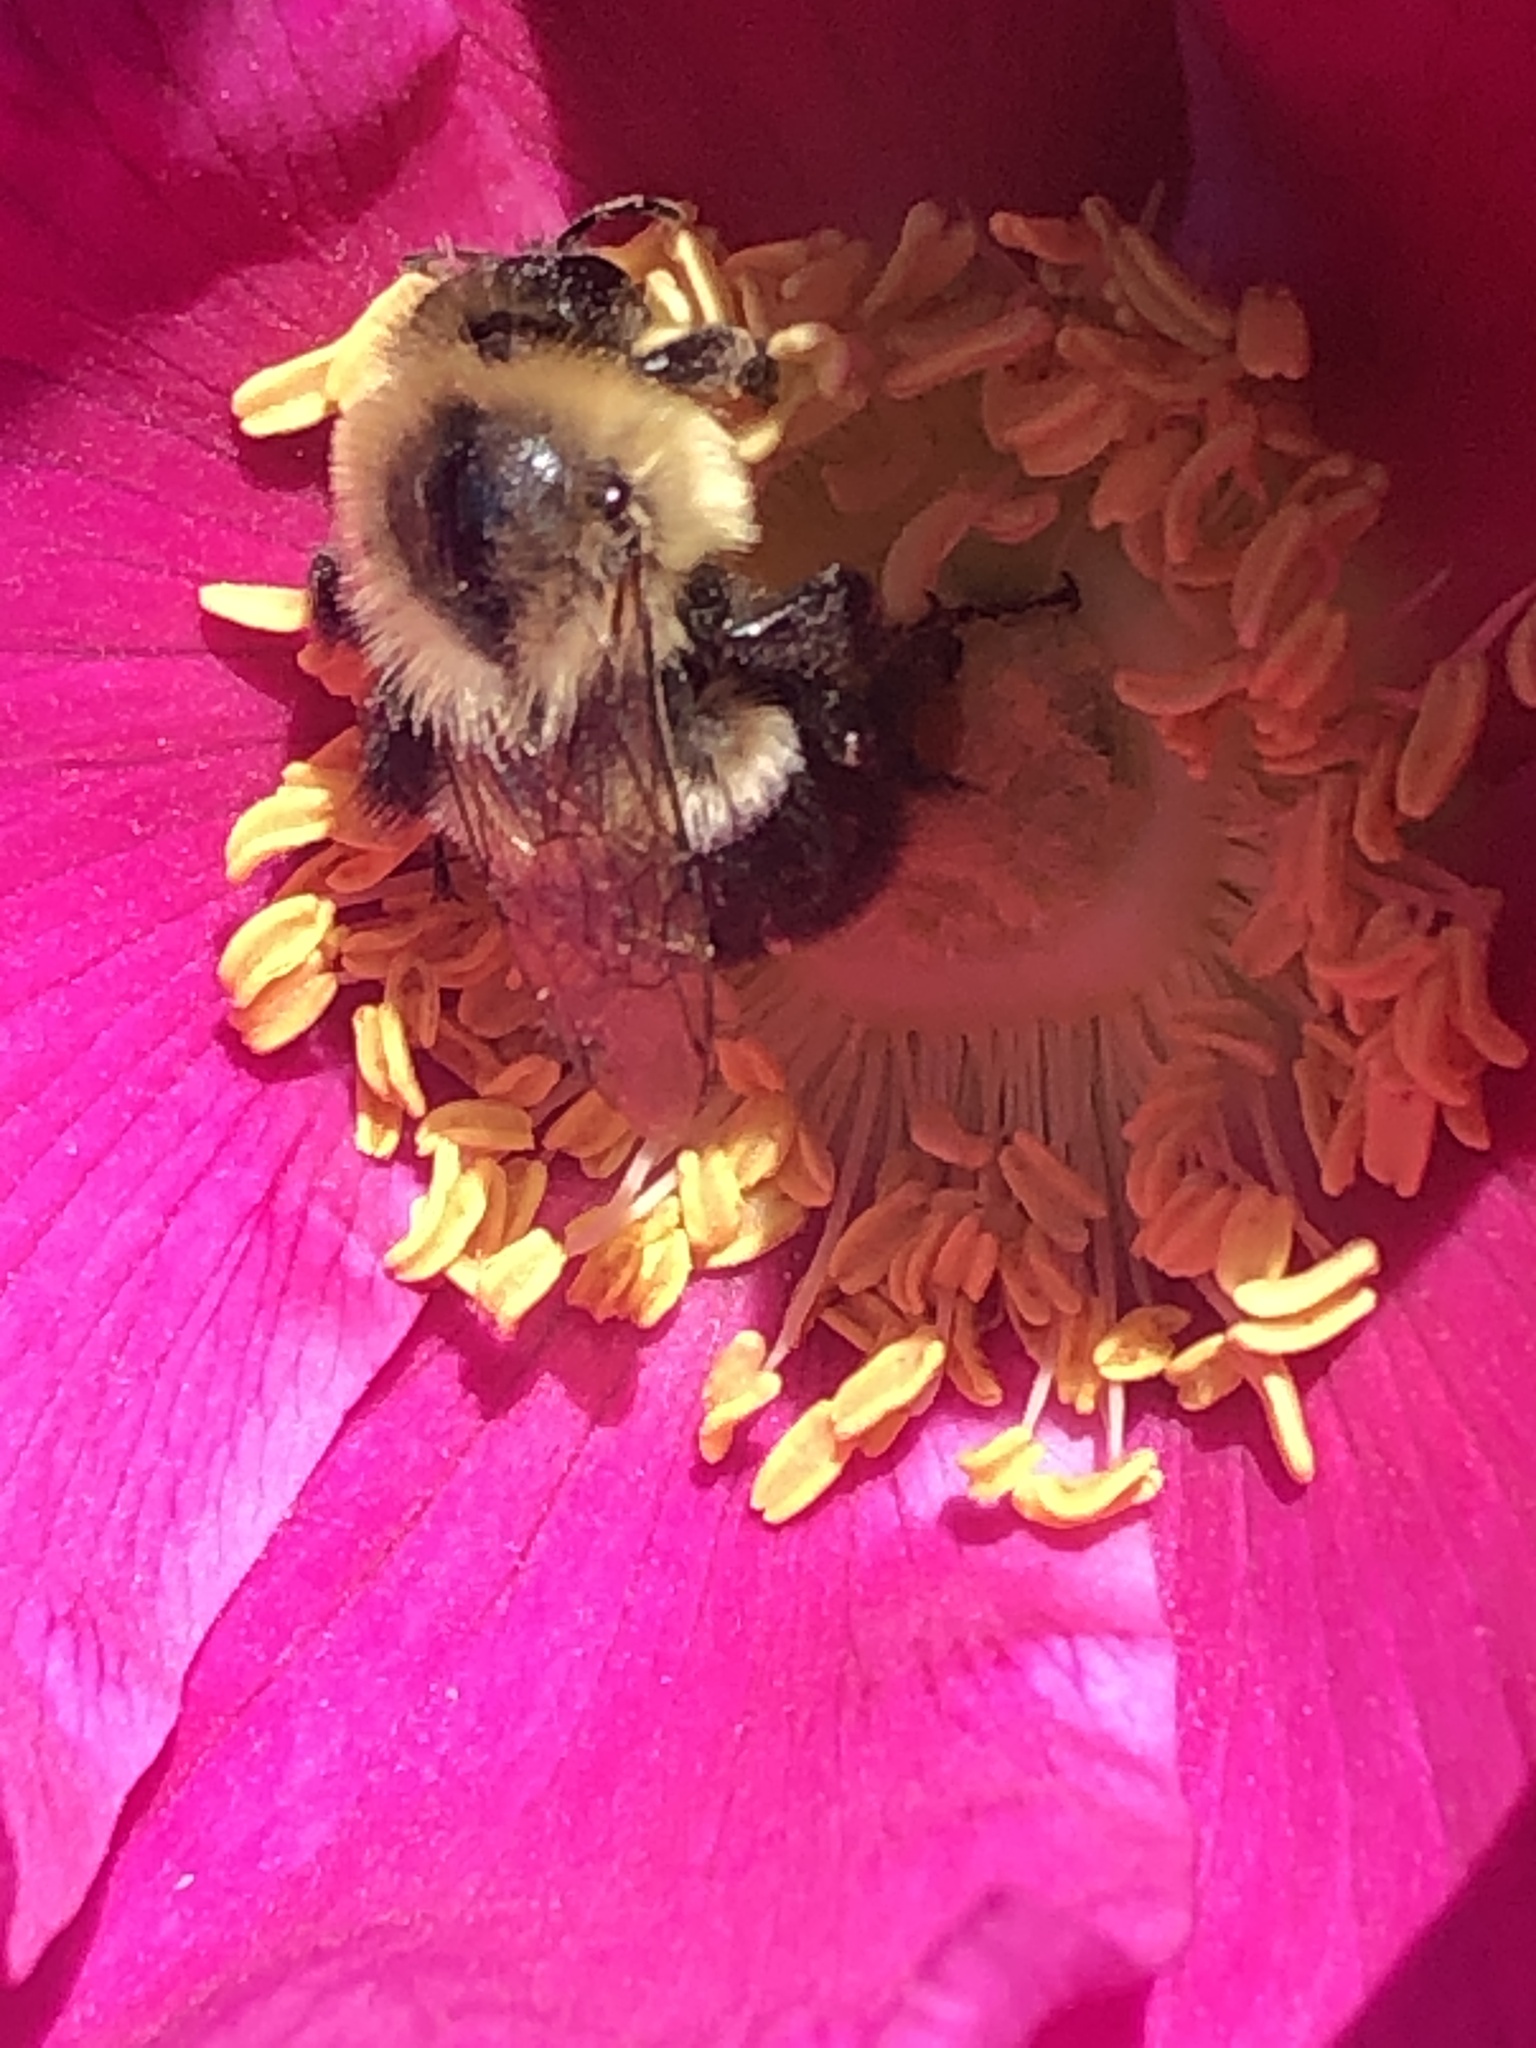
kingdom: Animalia
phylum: Arthropoda
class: Insecta
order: Hymenoptera
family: Apidae
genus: Bombus
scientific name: Bombus impatiens
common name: Common eastern bumble bee
